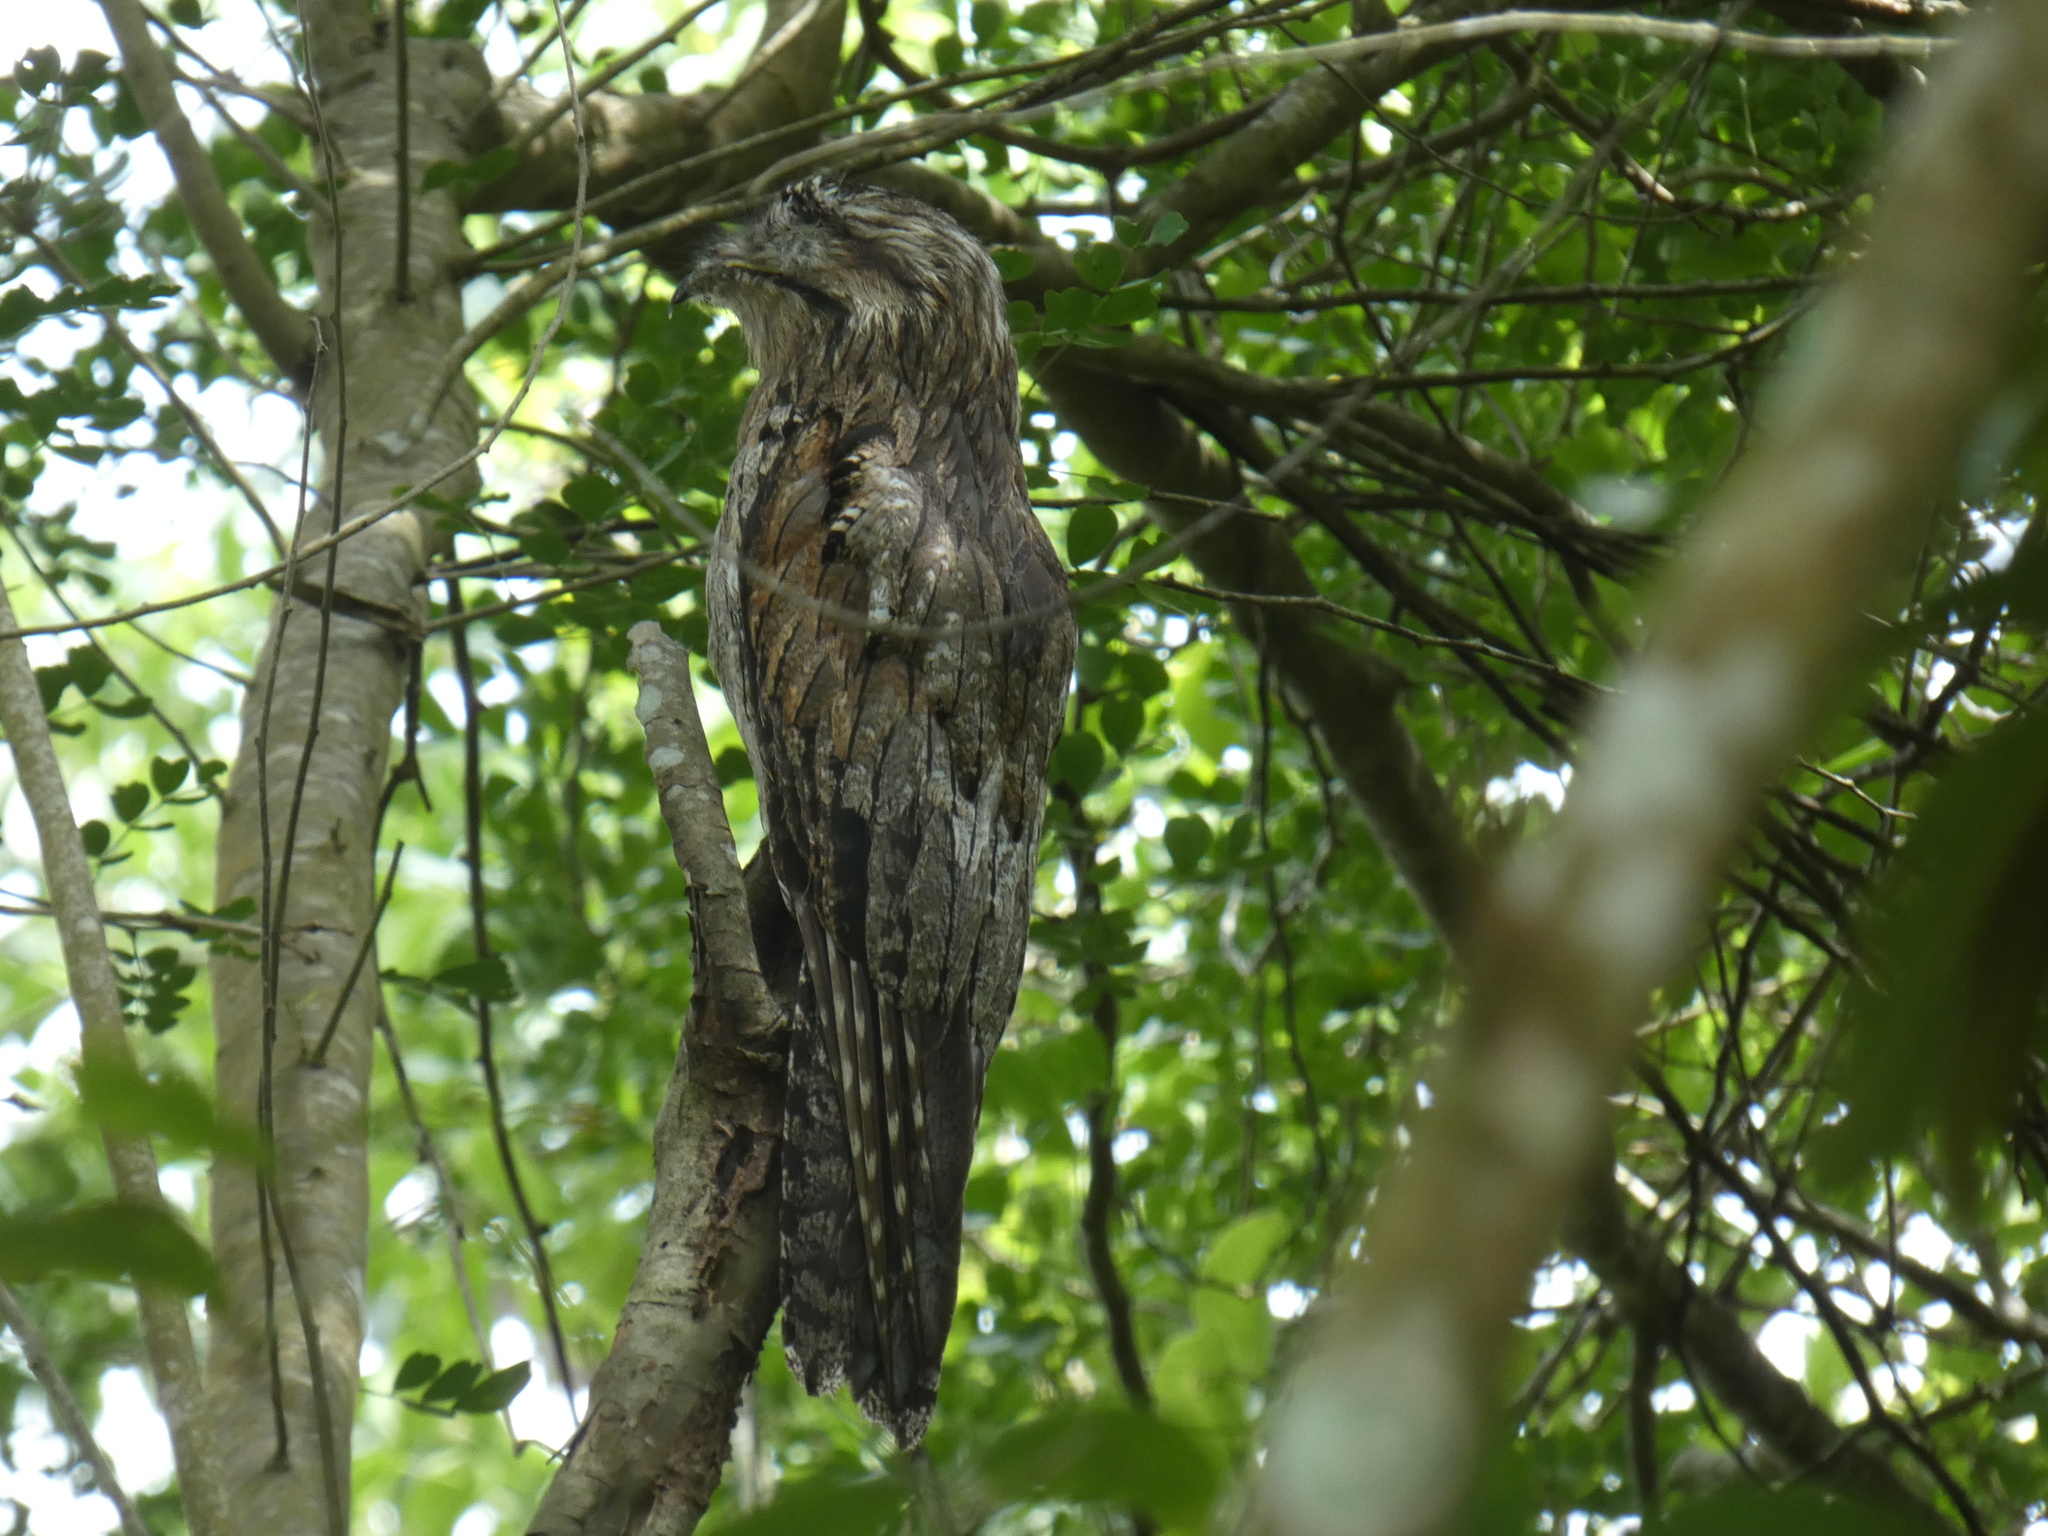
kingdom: Animalia
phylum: Chordata
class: Aves
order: Nyctibiiformes
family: Nyctibiidae
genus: Nyctibius
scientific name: Nyctibius jamaicensis
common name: Northern potoo
